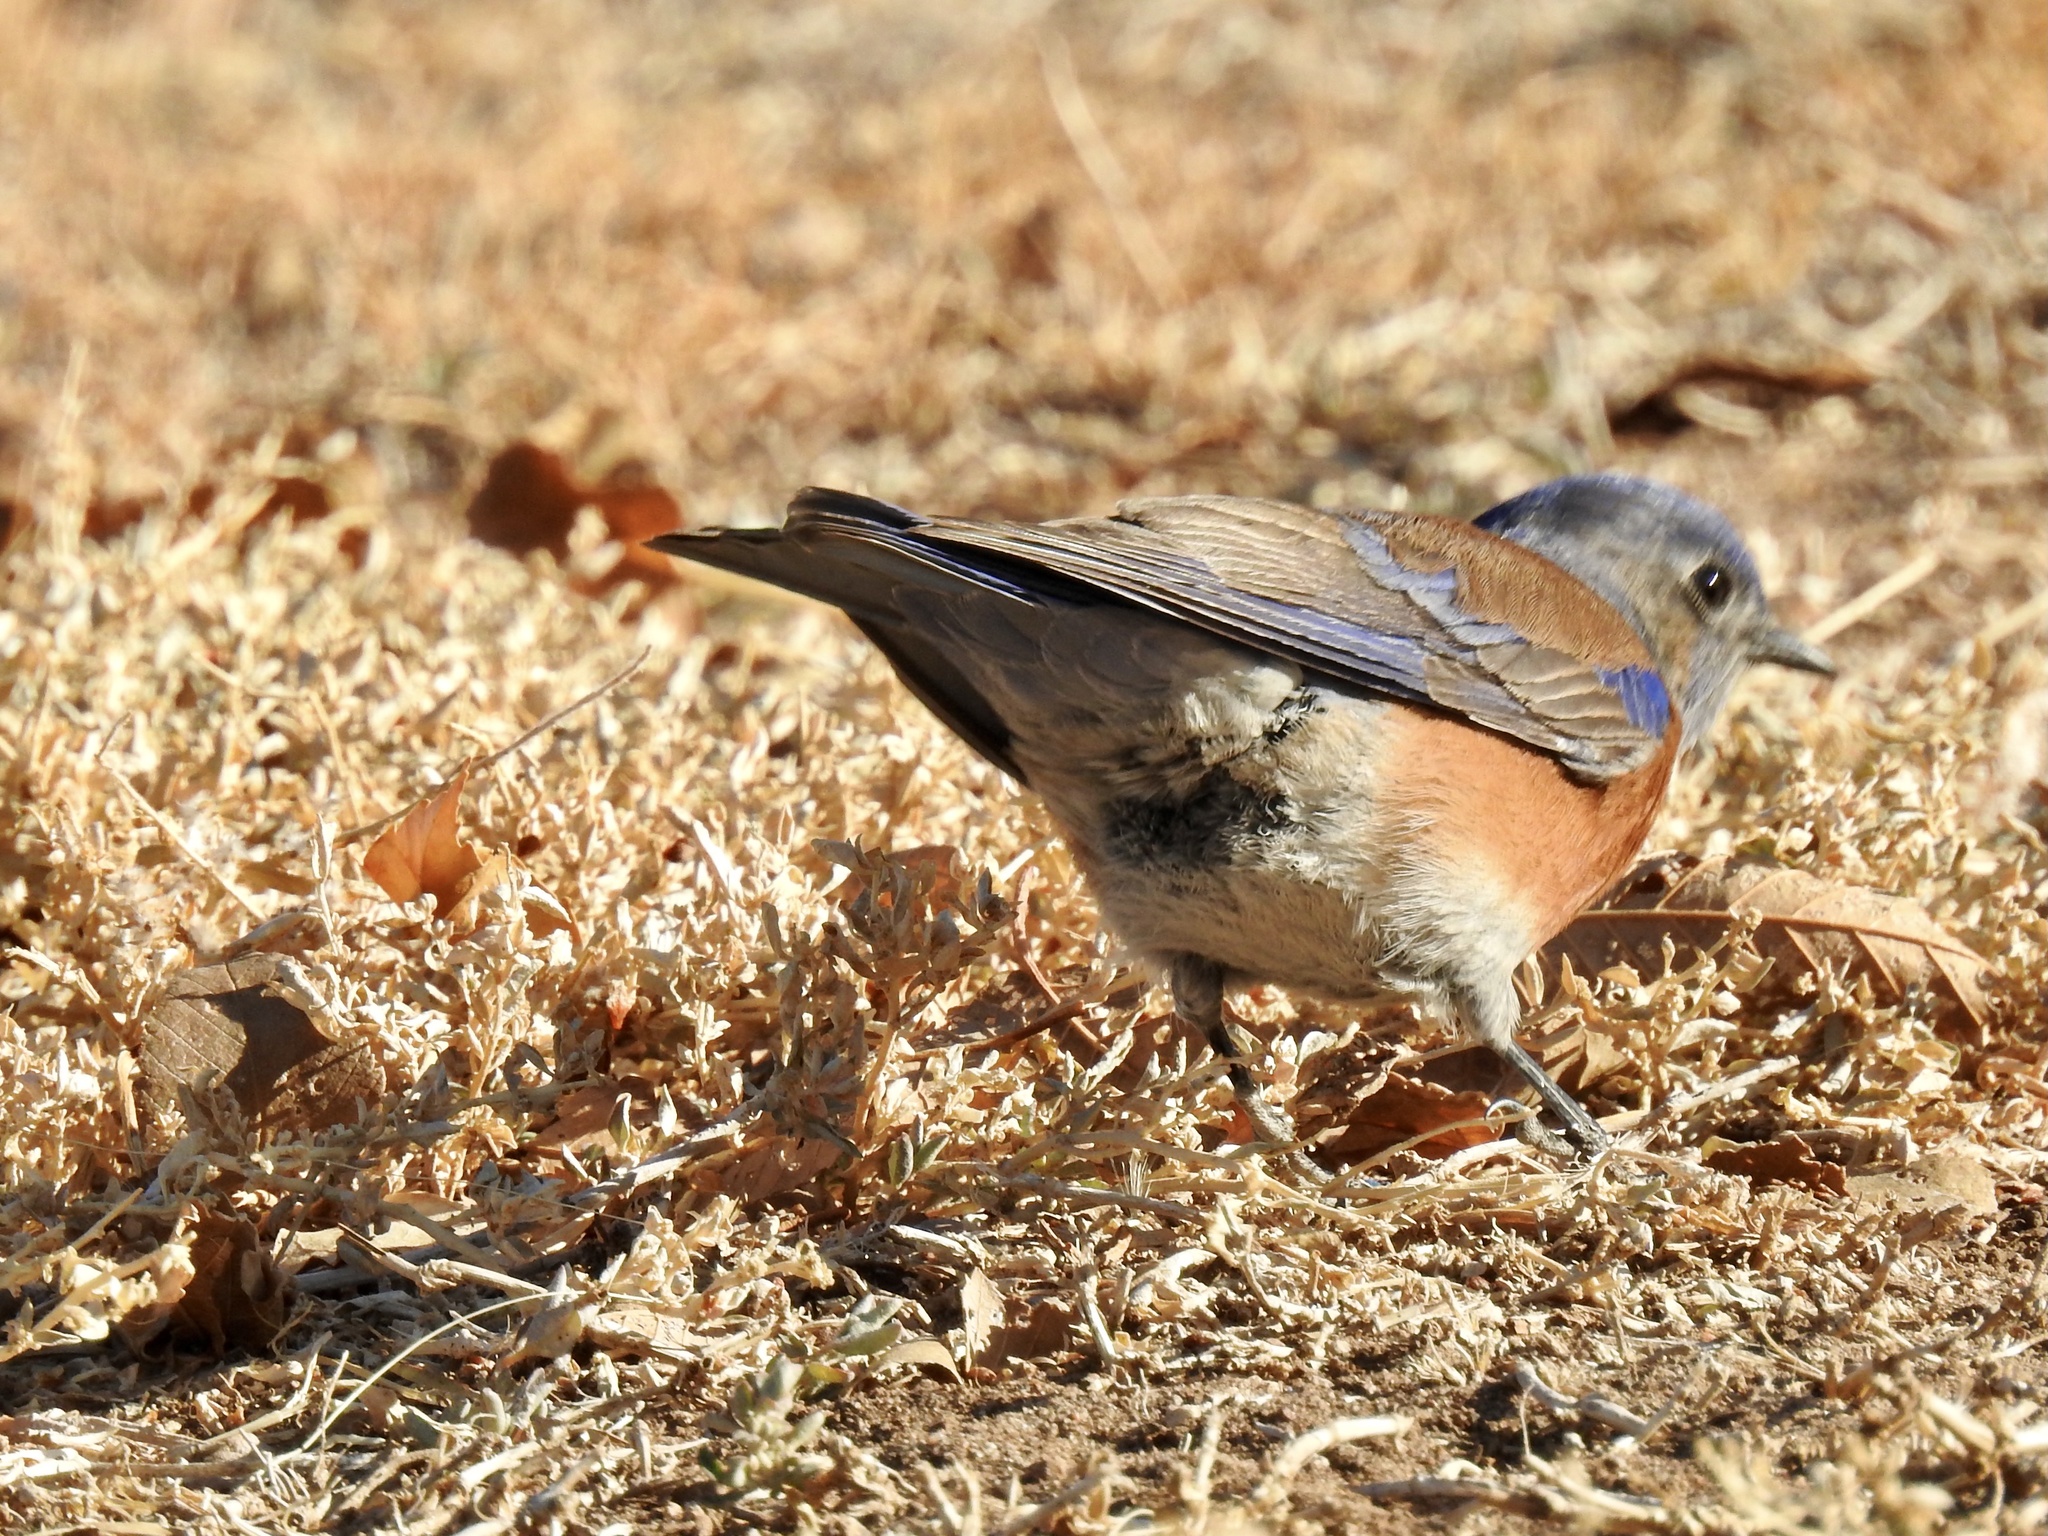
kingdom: Animalia
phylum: Chordata
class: Aves
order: Passeriformes
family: Turdidae
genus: Sialia
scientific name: Sialia mexicana
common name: Western bluebird
